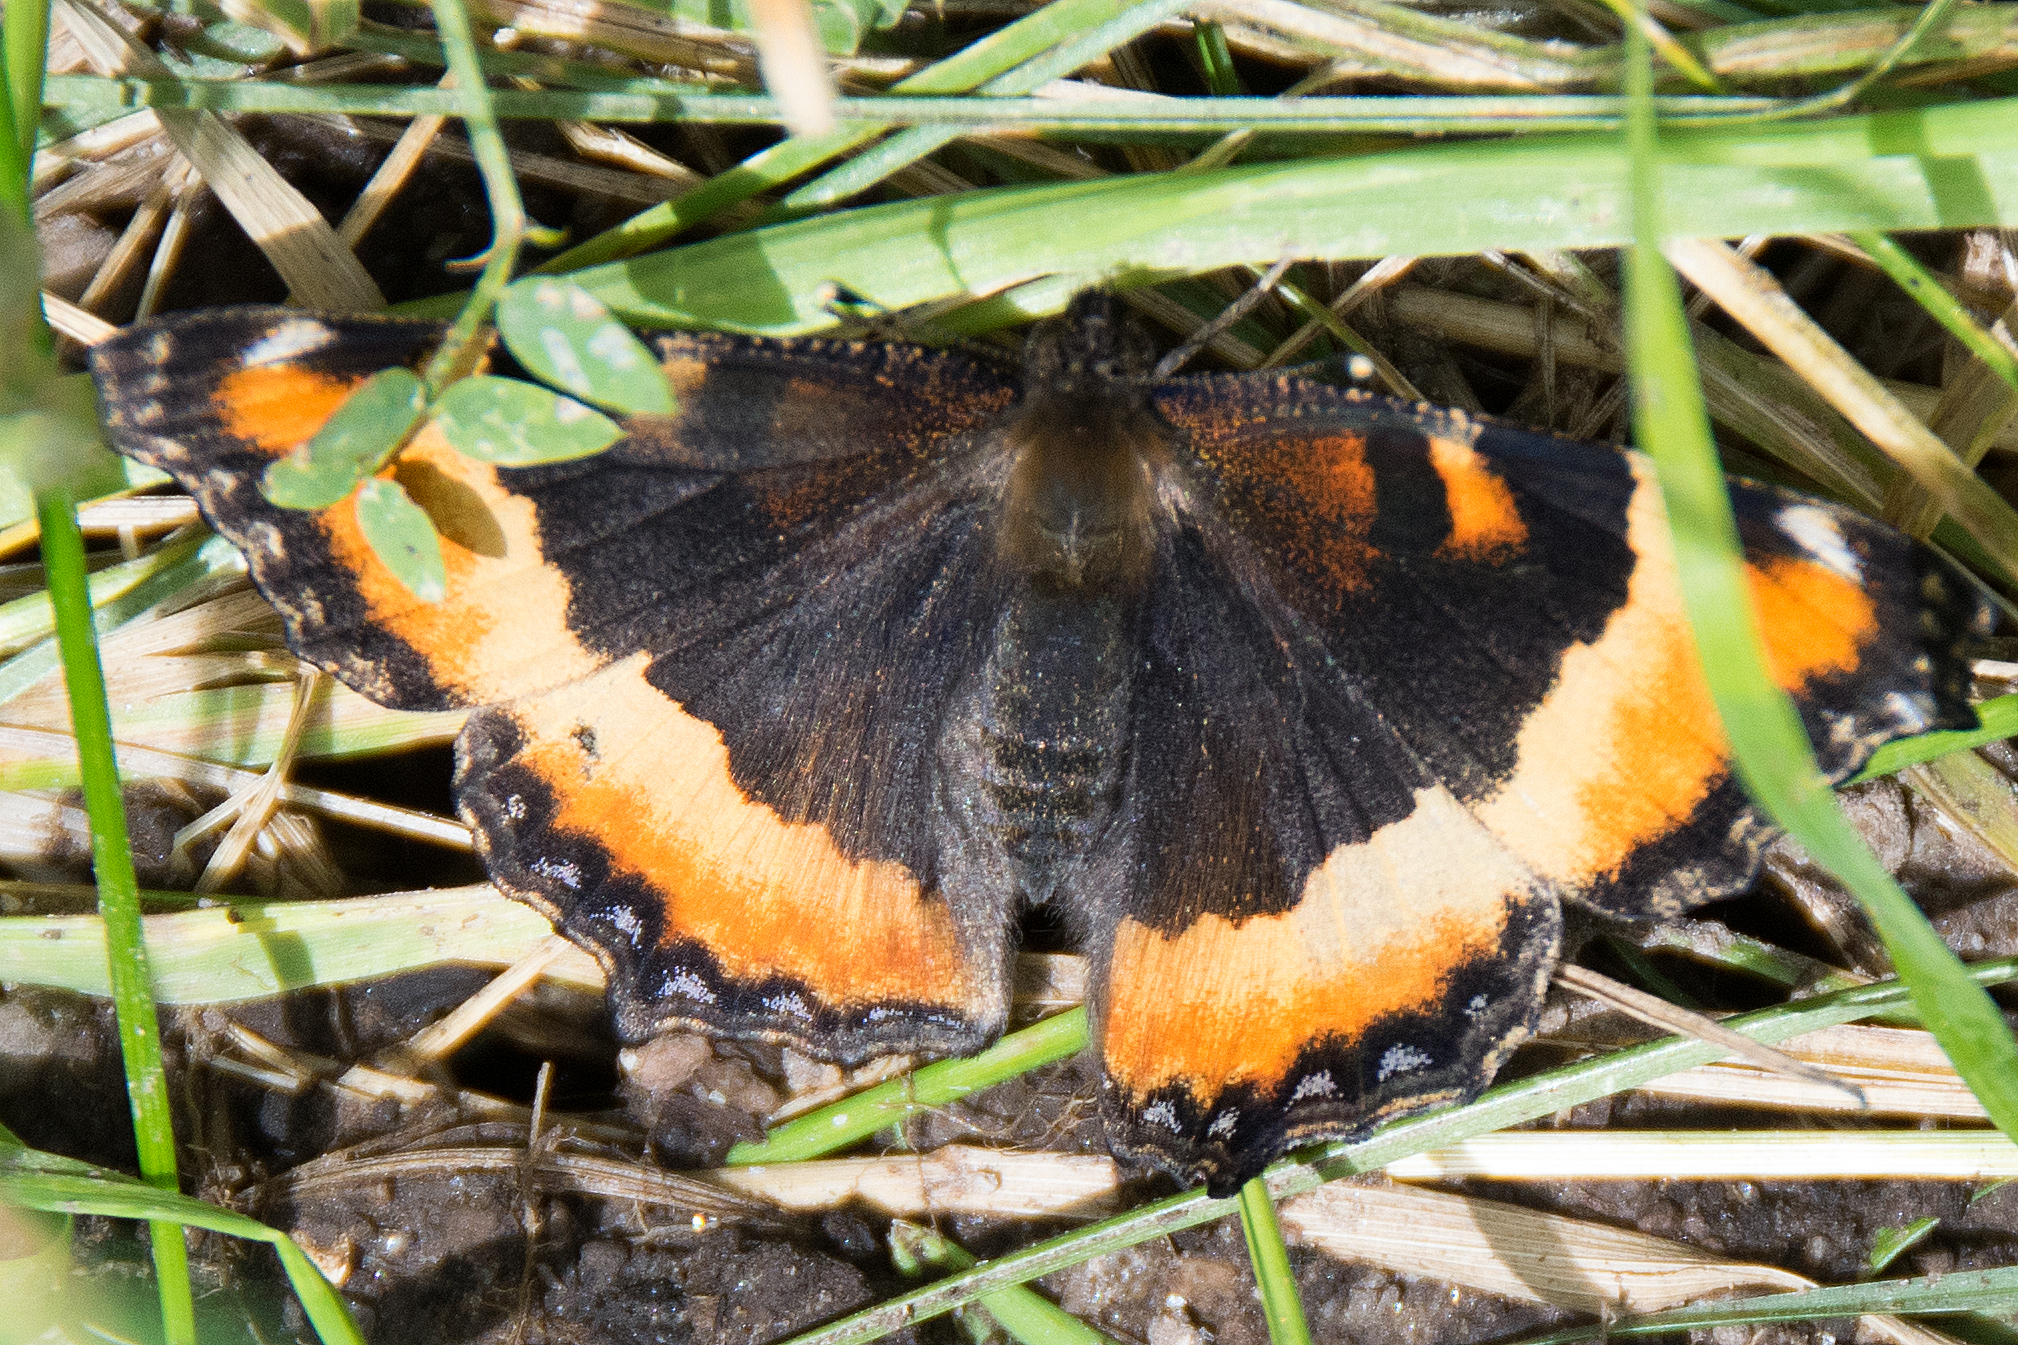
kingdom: Animalia
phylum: Arthropoda
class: Insecta
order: Lepidoptera
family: Nymphalidae
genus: Aglais
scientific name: Aglais milberti
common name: Milbert's tortoiseshell
